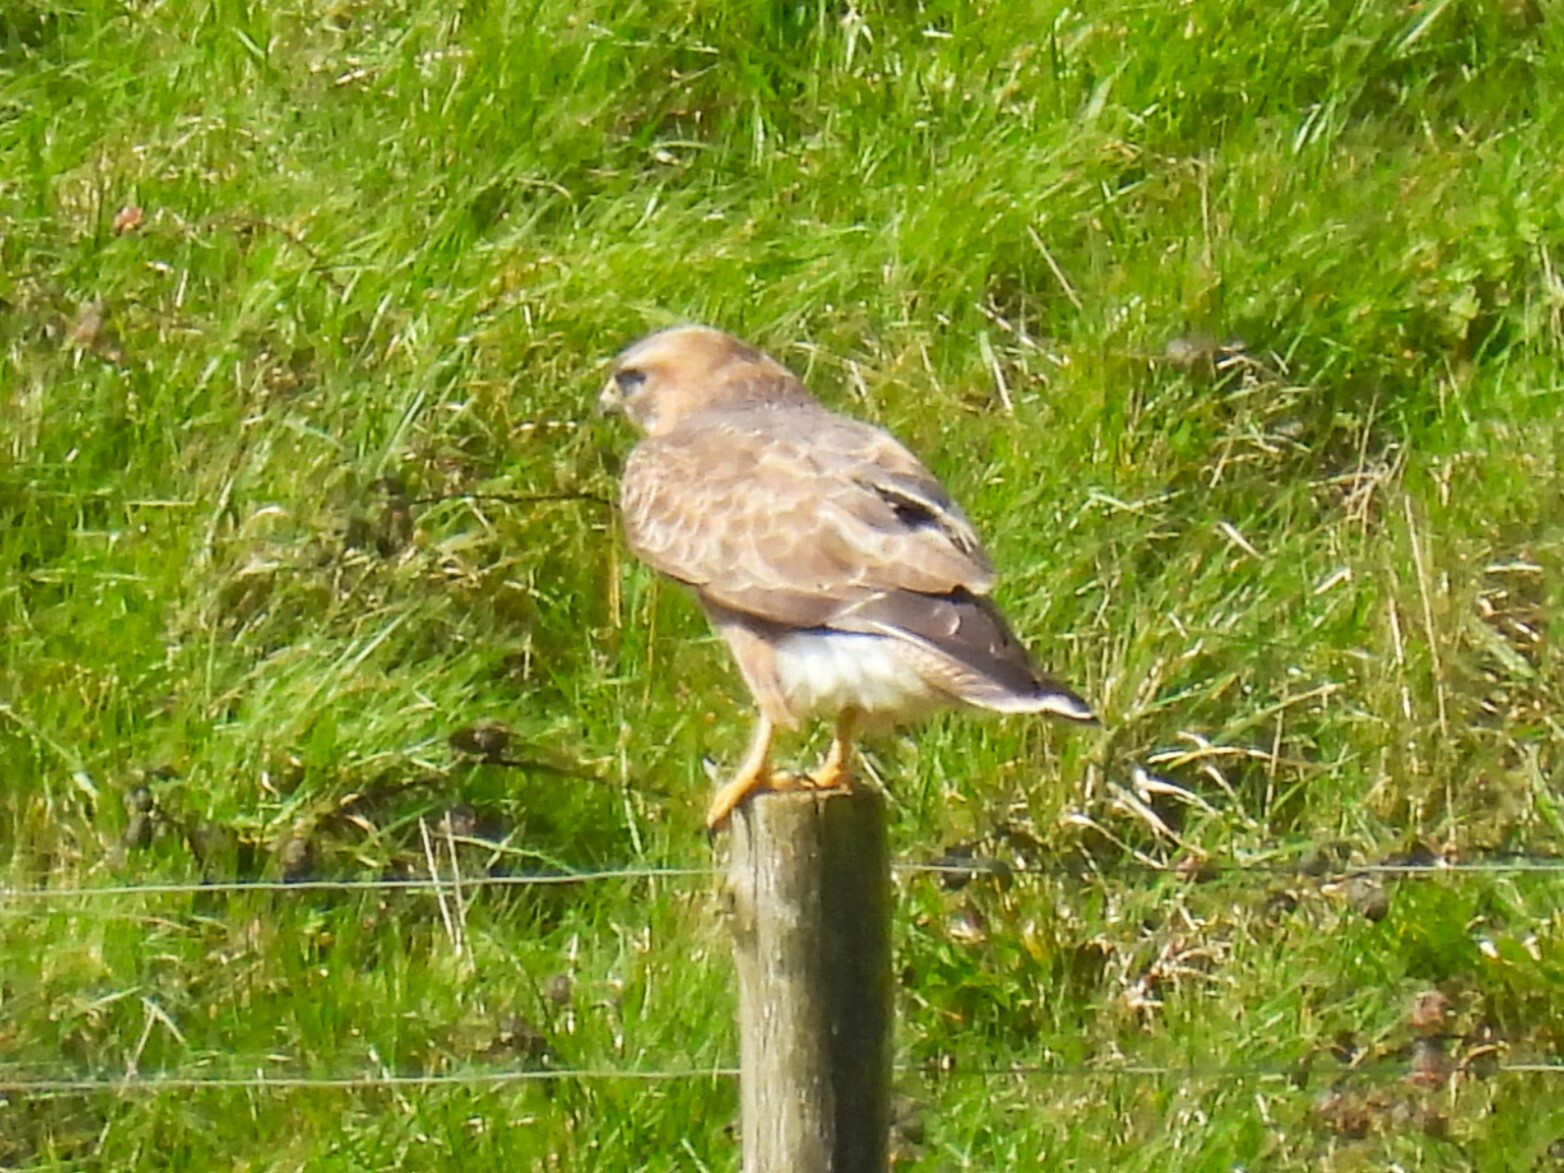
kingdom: Animalia
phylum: Chordata
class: Aves
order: Accipitriformes
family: Accipitridae
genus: Buteo
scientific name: Buteo buteo
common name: Common buzzard
